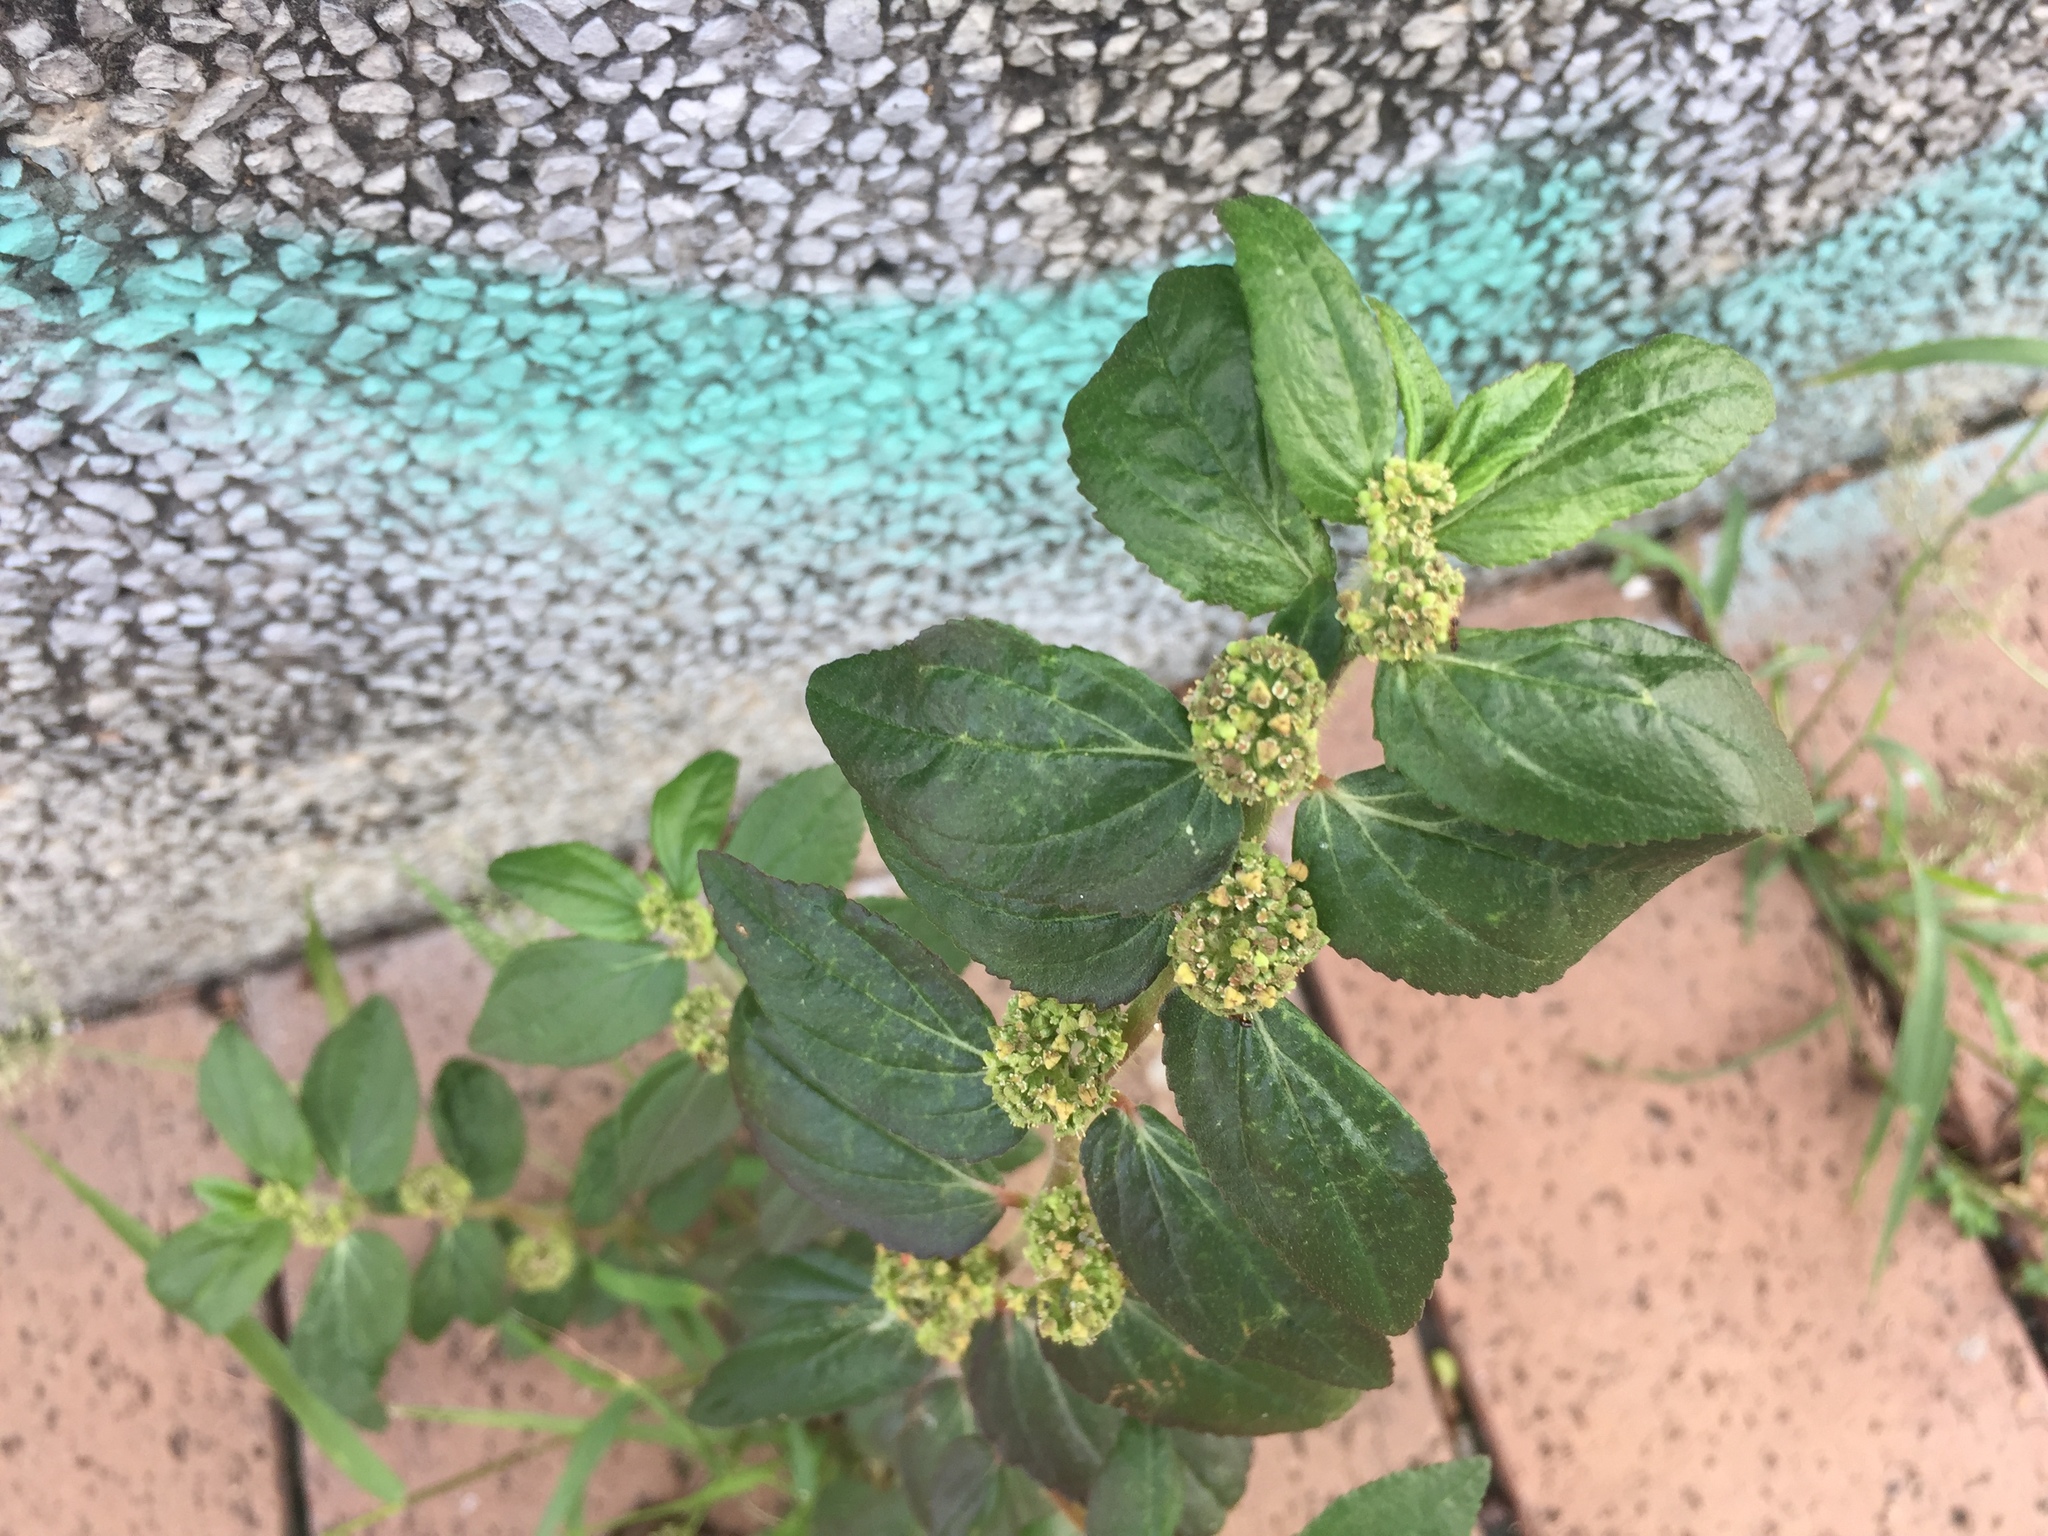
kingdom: Plantae
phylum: Tracheophyta
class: Magnoliopsida
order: Malpighiales
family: Euphorbiaceae
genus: Euphorbia
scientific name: Euphorbia hirta
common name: Pillpod sandmat
